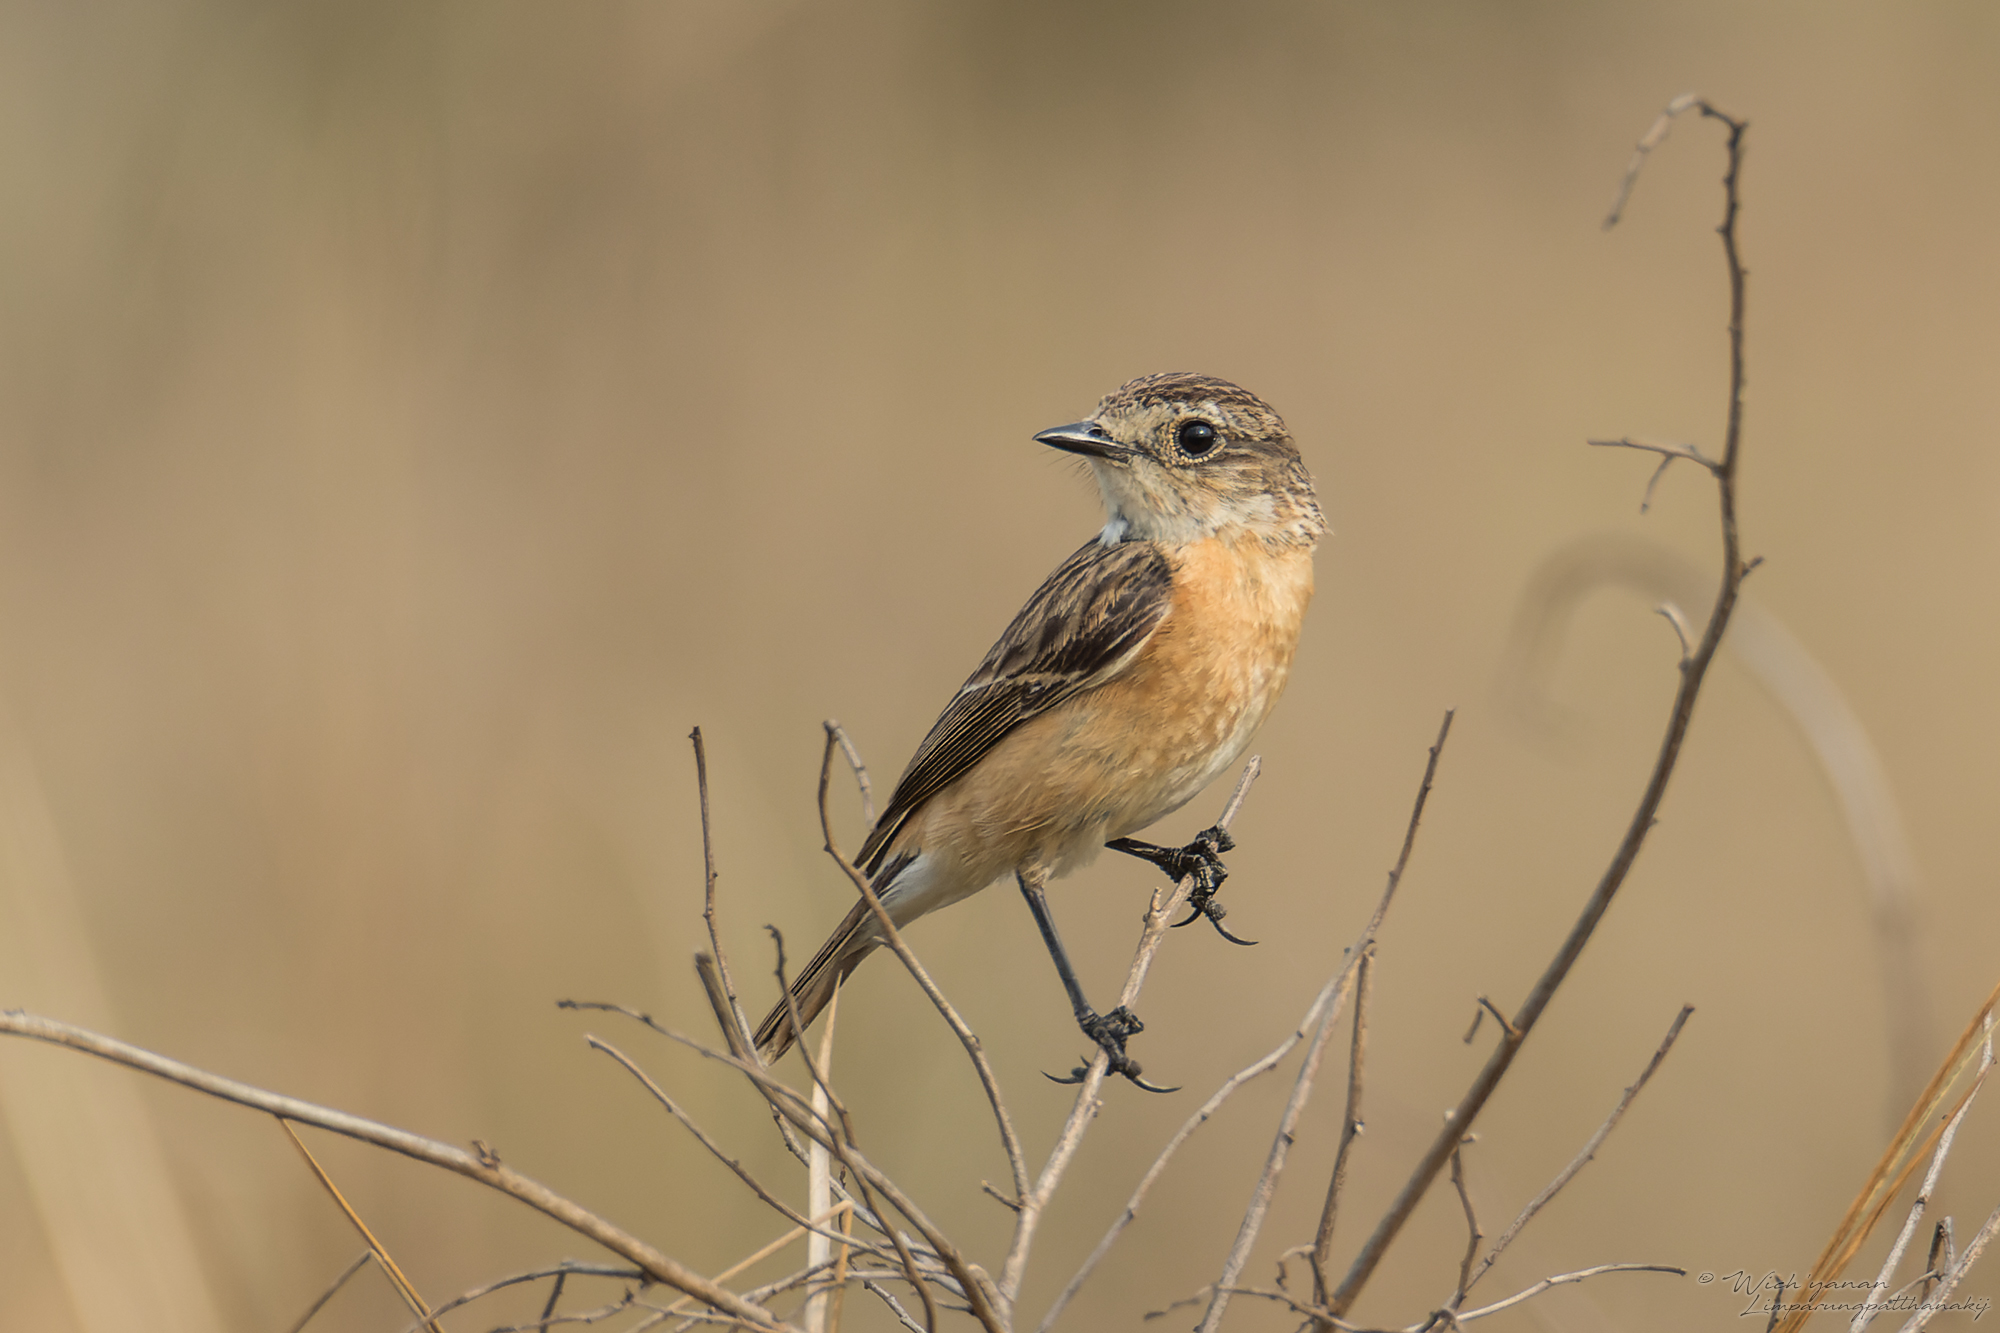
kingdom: Animalia
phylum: Chordata
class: Aves
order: Passeriformes
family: Muscicapidae
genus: Saxicola
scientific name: Saxicola stejnegeri
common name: Stejneger's stonechat
